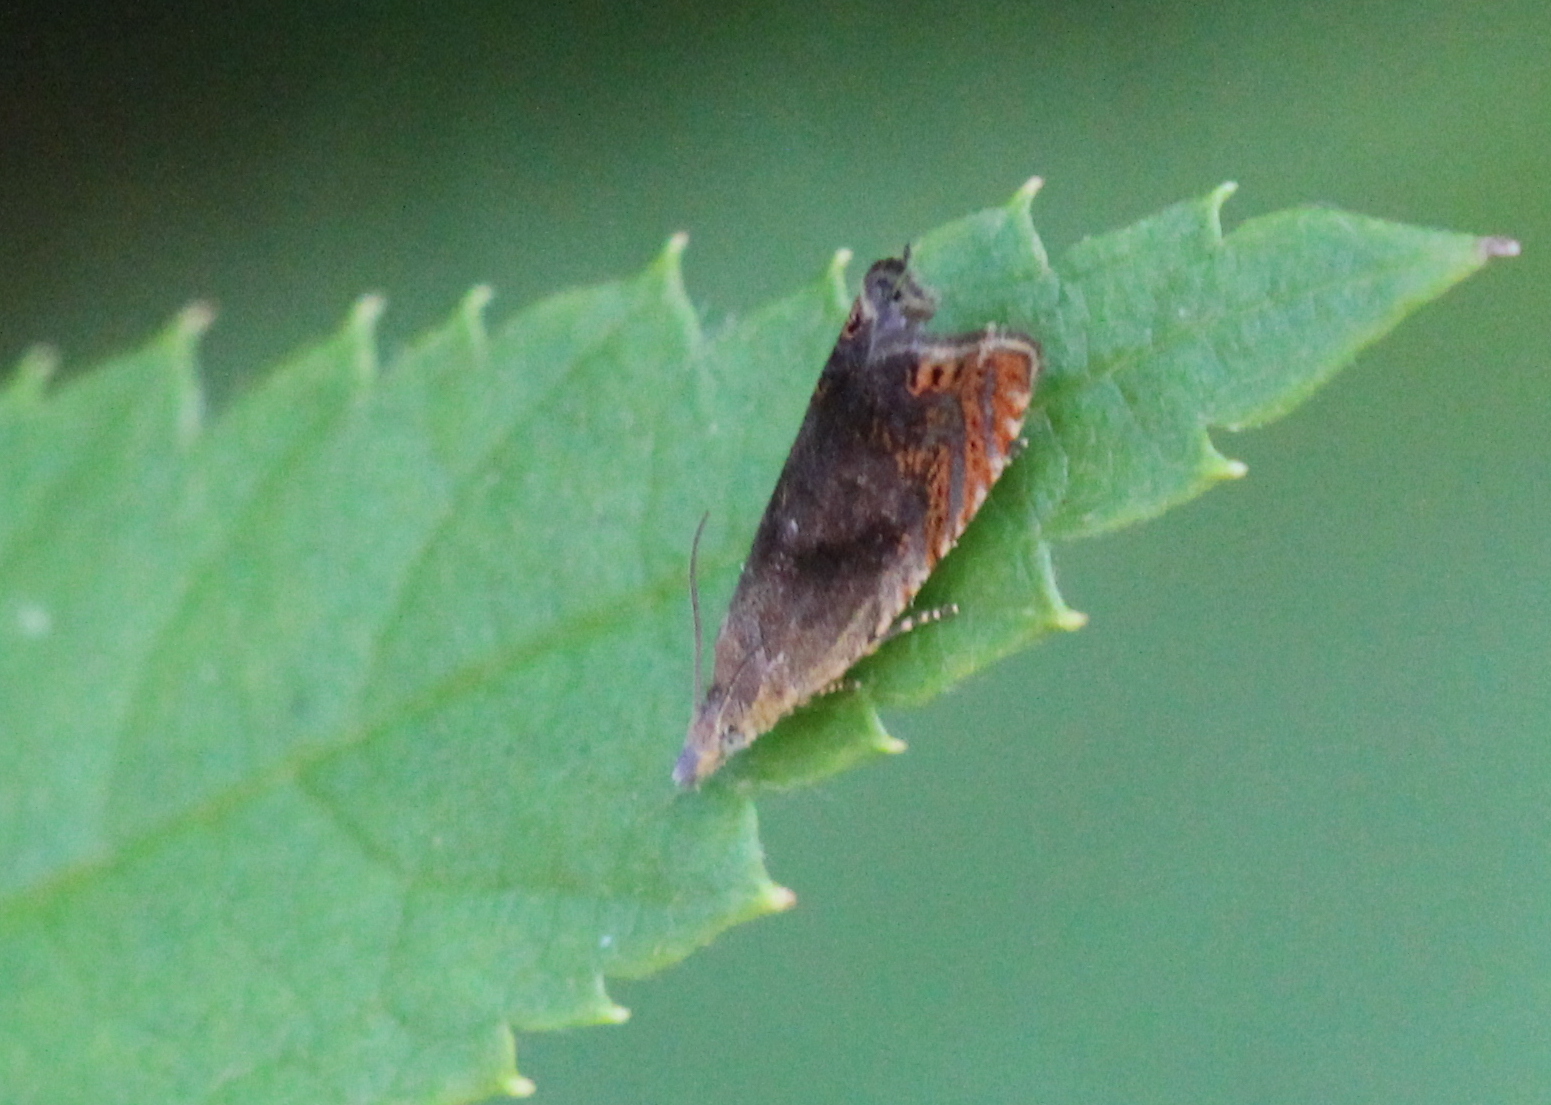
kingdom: Animalia
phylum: Arthropoda
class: Insecta
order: Lepidoptera
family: Tortricidae
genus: Dichrorampha
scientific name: Dichrorampha acuminatana
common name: Sharp-winged drill
